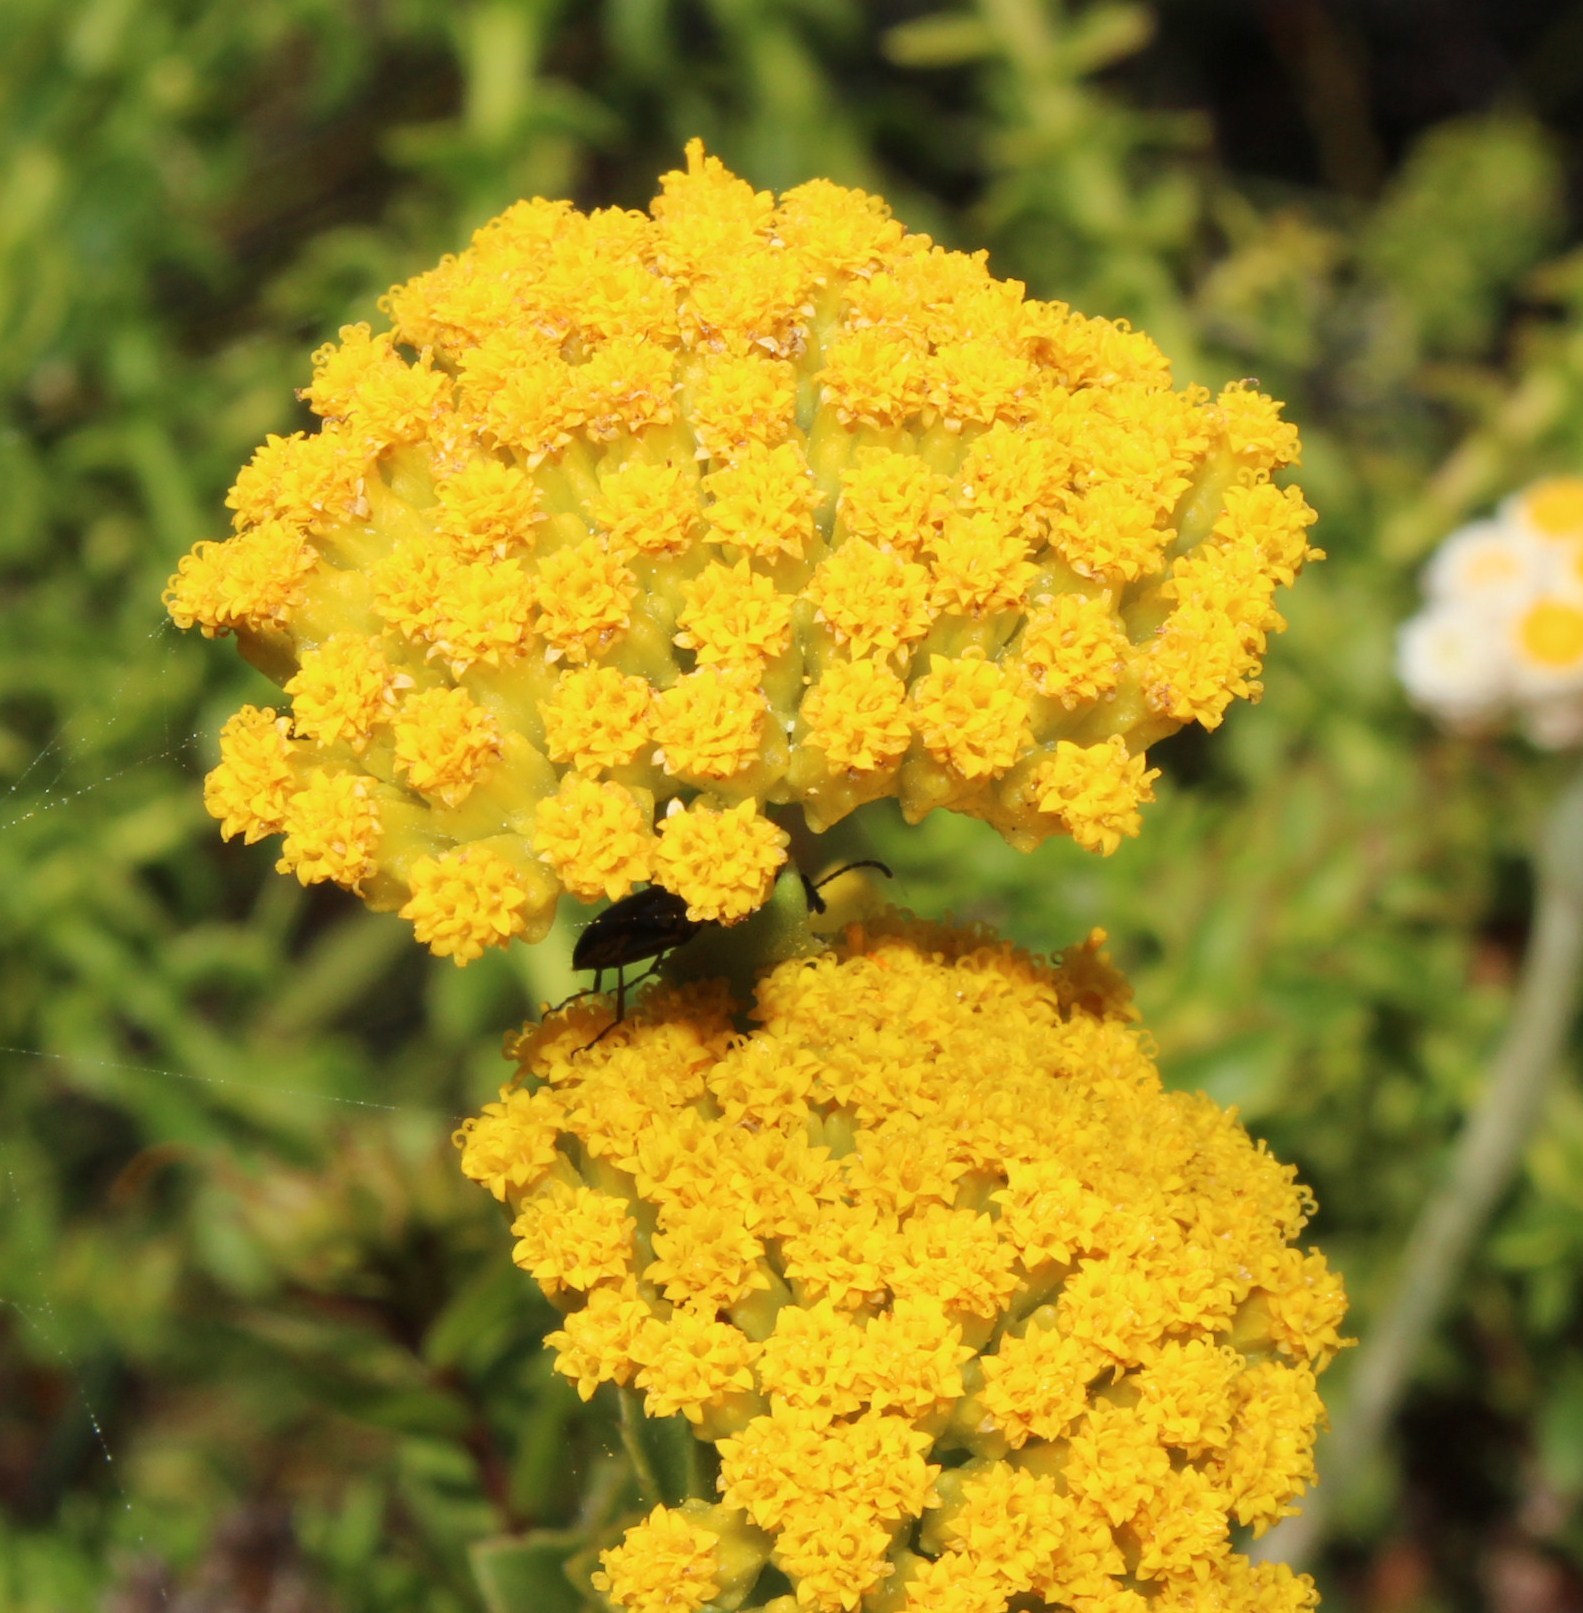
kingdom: Plantae
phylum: Tracheophyta
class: Magnoliopsida
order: Asterales
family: Asteraceae
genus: Athanasia
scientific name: Athanasia dentata
